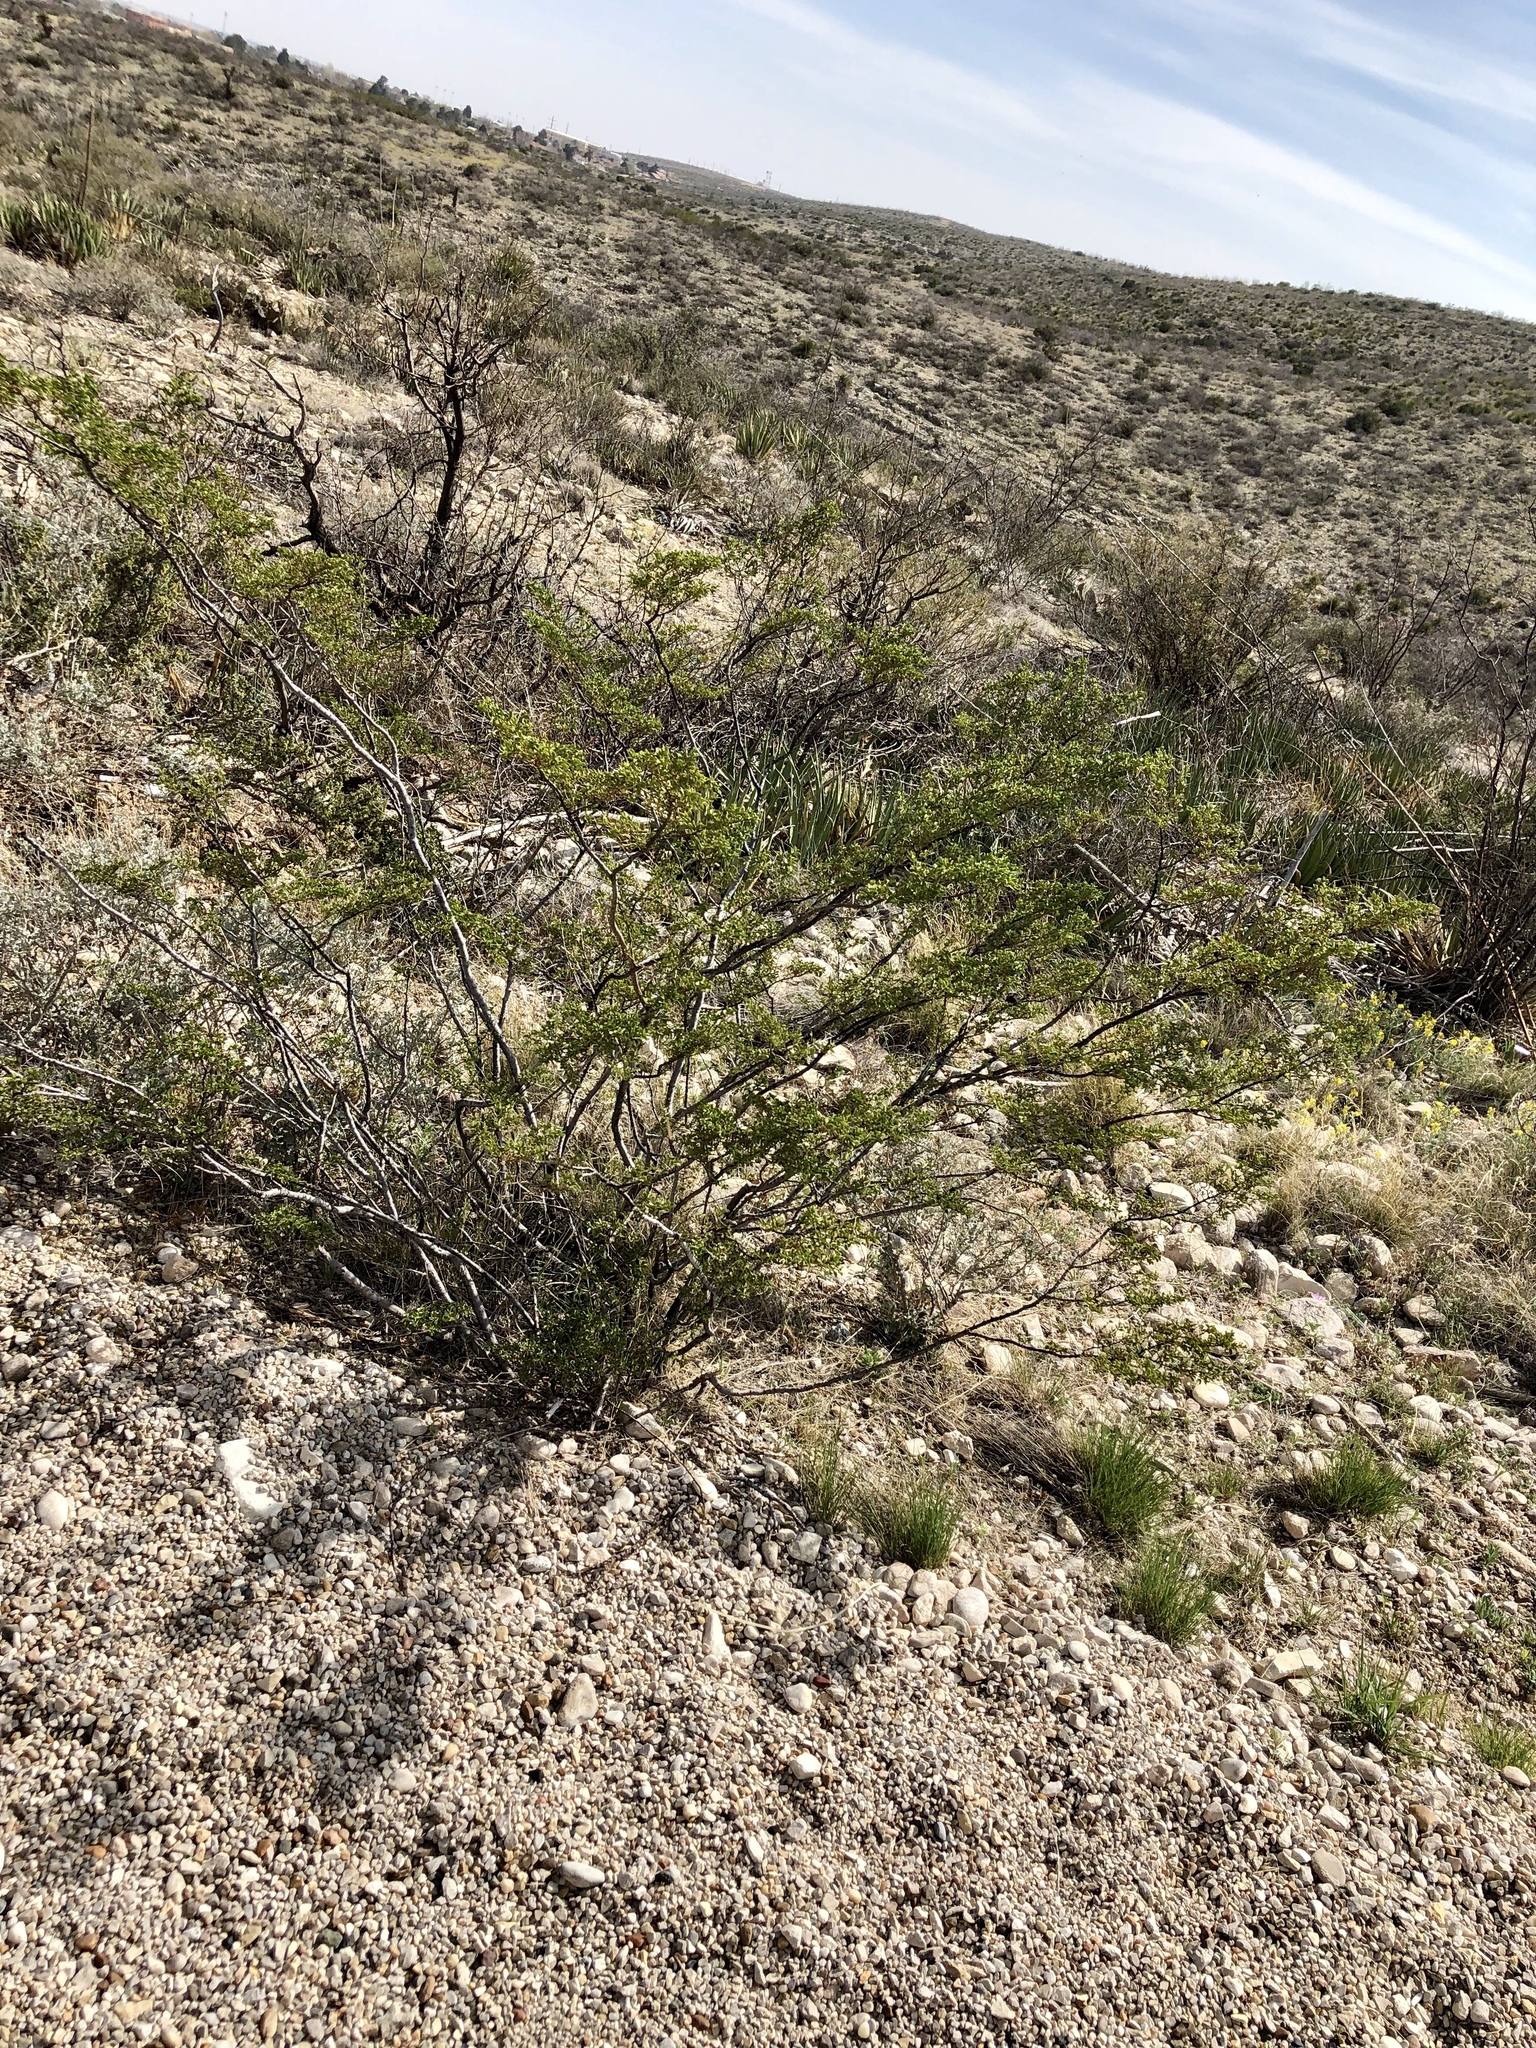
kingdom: Plantae
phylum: Tracheophyta
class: Magnoliopsida
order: Zygophyllales
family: Zygophyllaceae
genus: Larrea
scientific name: Larrea tridentata
